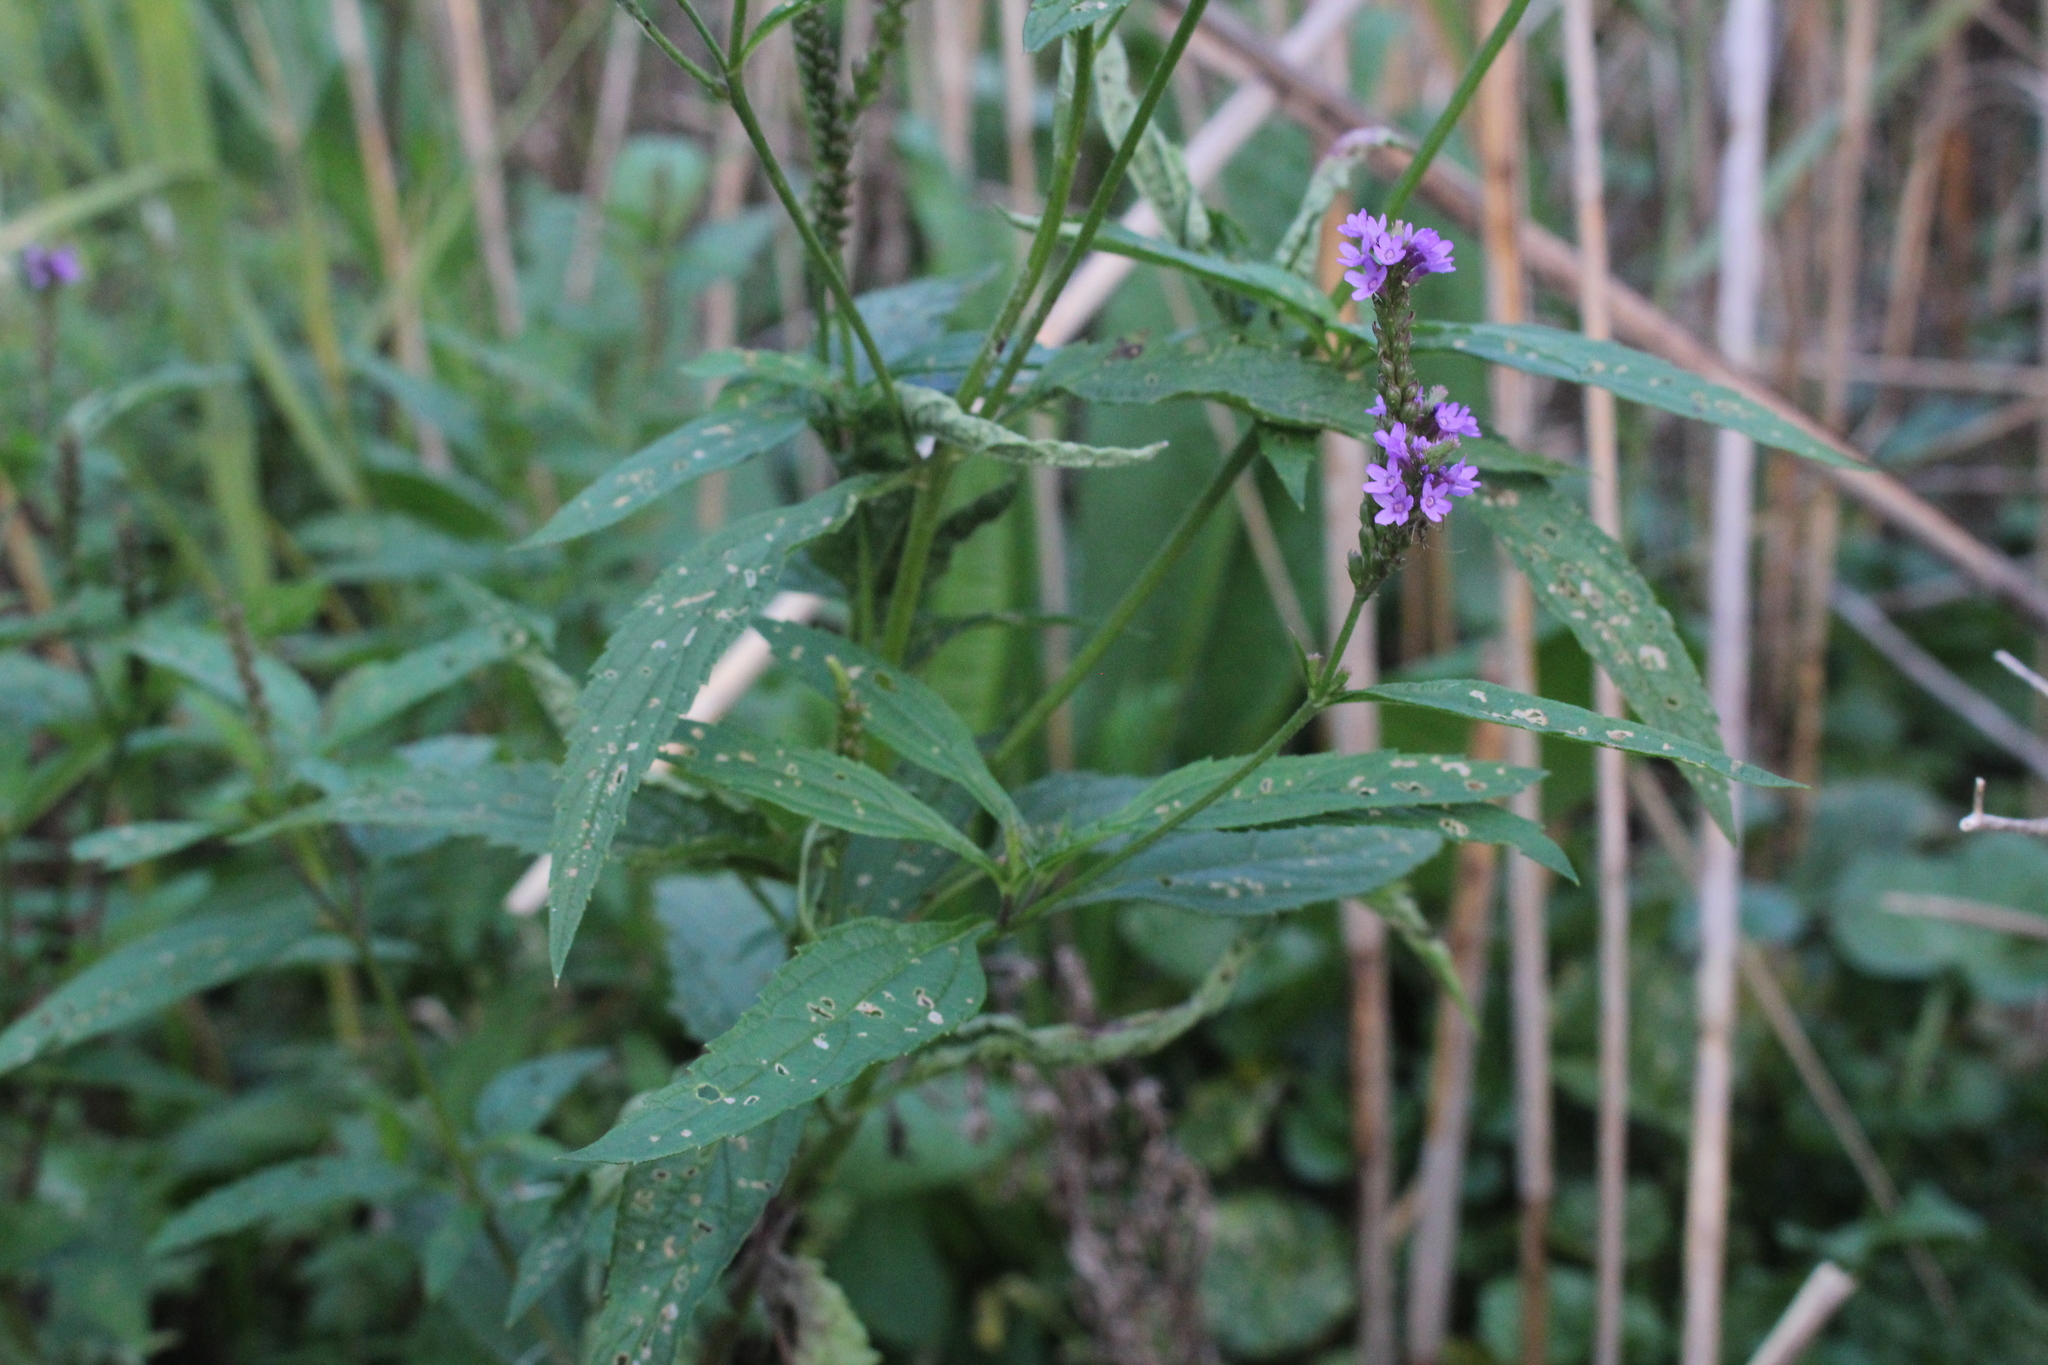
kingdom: Plantae
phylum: Tracheophyta
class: Magnoliopsida
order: Lamiales
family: Verbenaceae
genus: Verbena
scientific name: Verbena hastata
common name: American blue vervain
